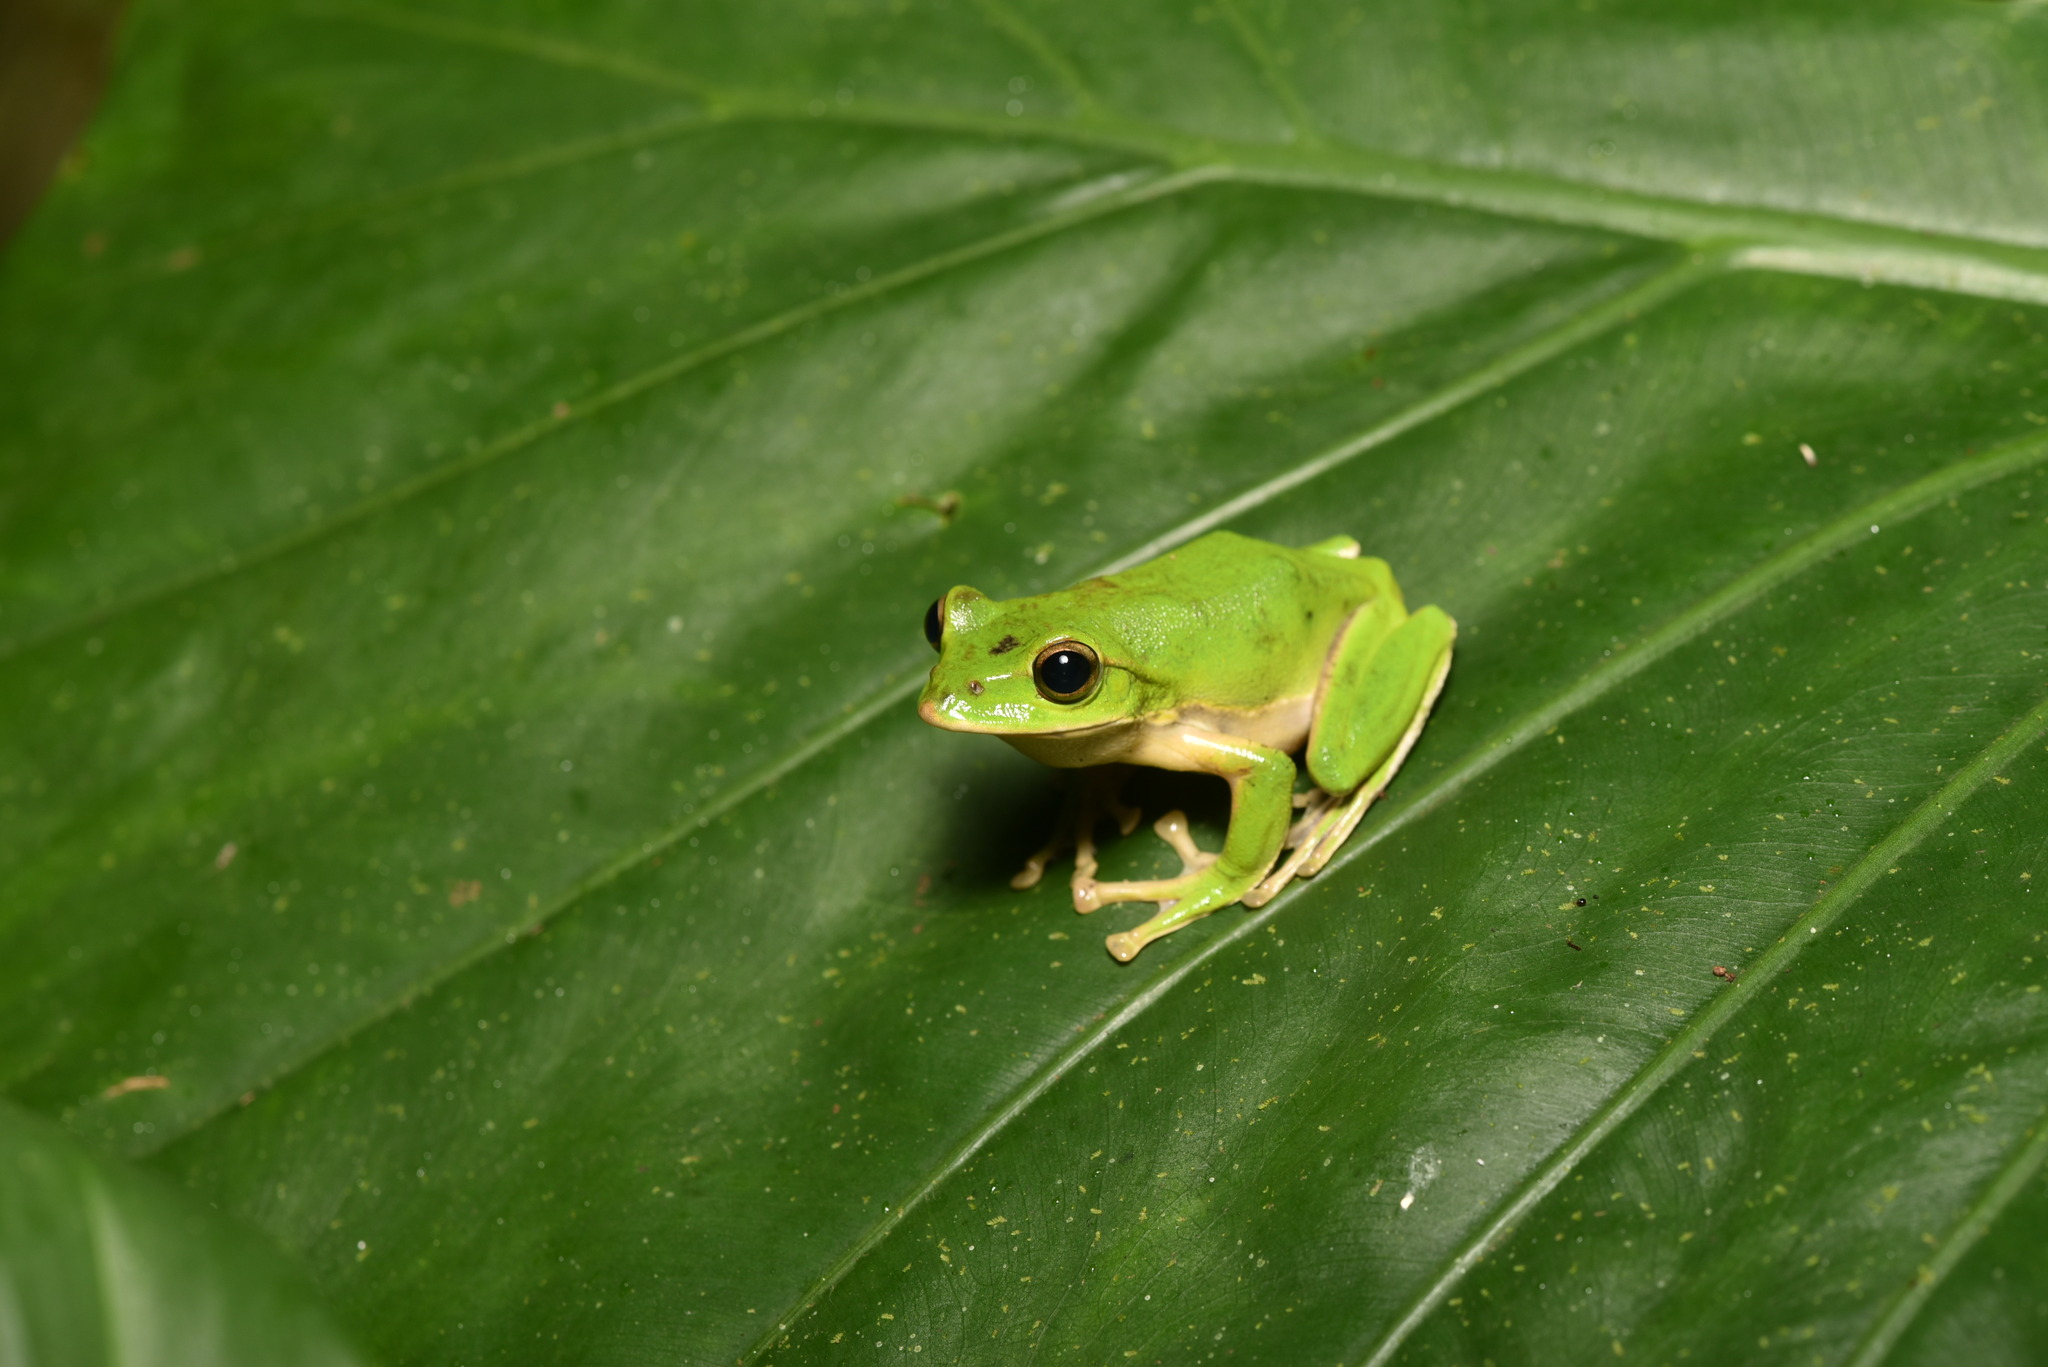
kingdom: Animalia
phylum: Chordata
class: Amphibia
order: Anura
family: Rhacophoridae
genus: Zhangixalus
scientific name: Zhangixalus prasinatus
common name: Tributary flying frog
